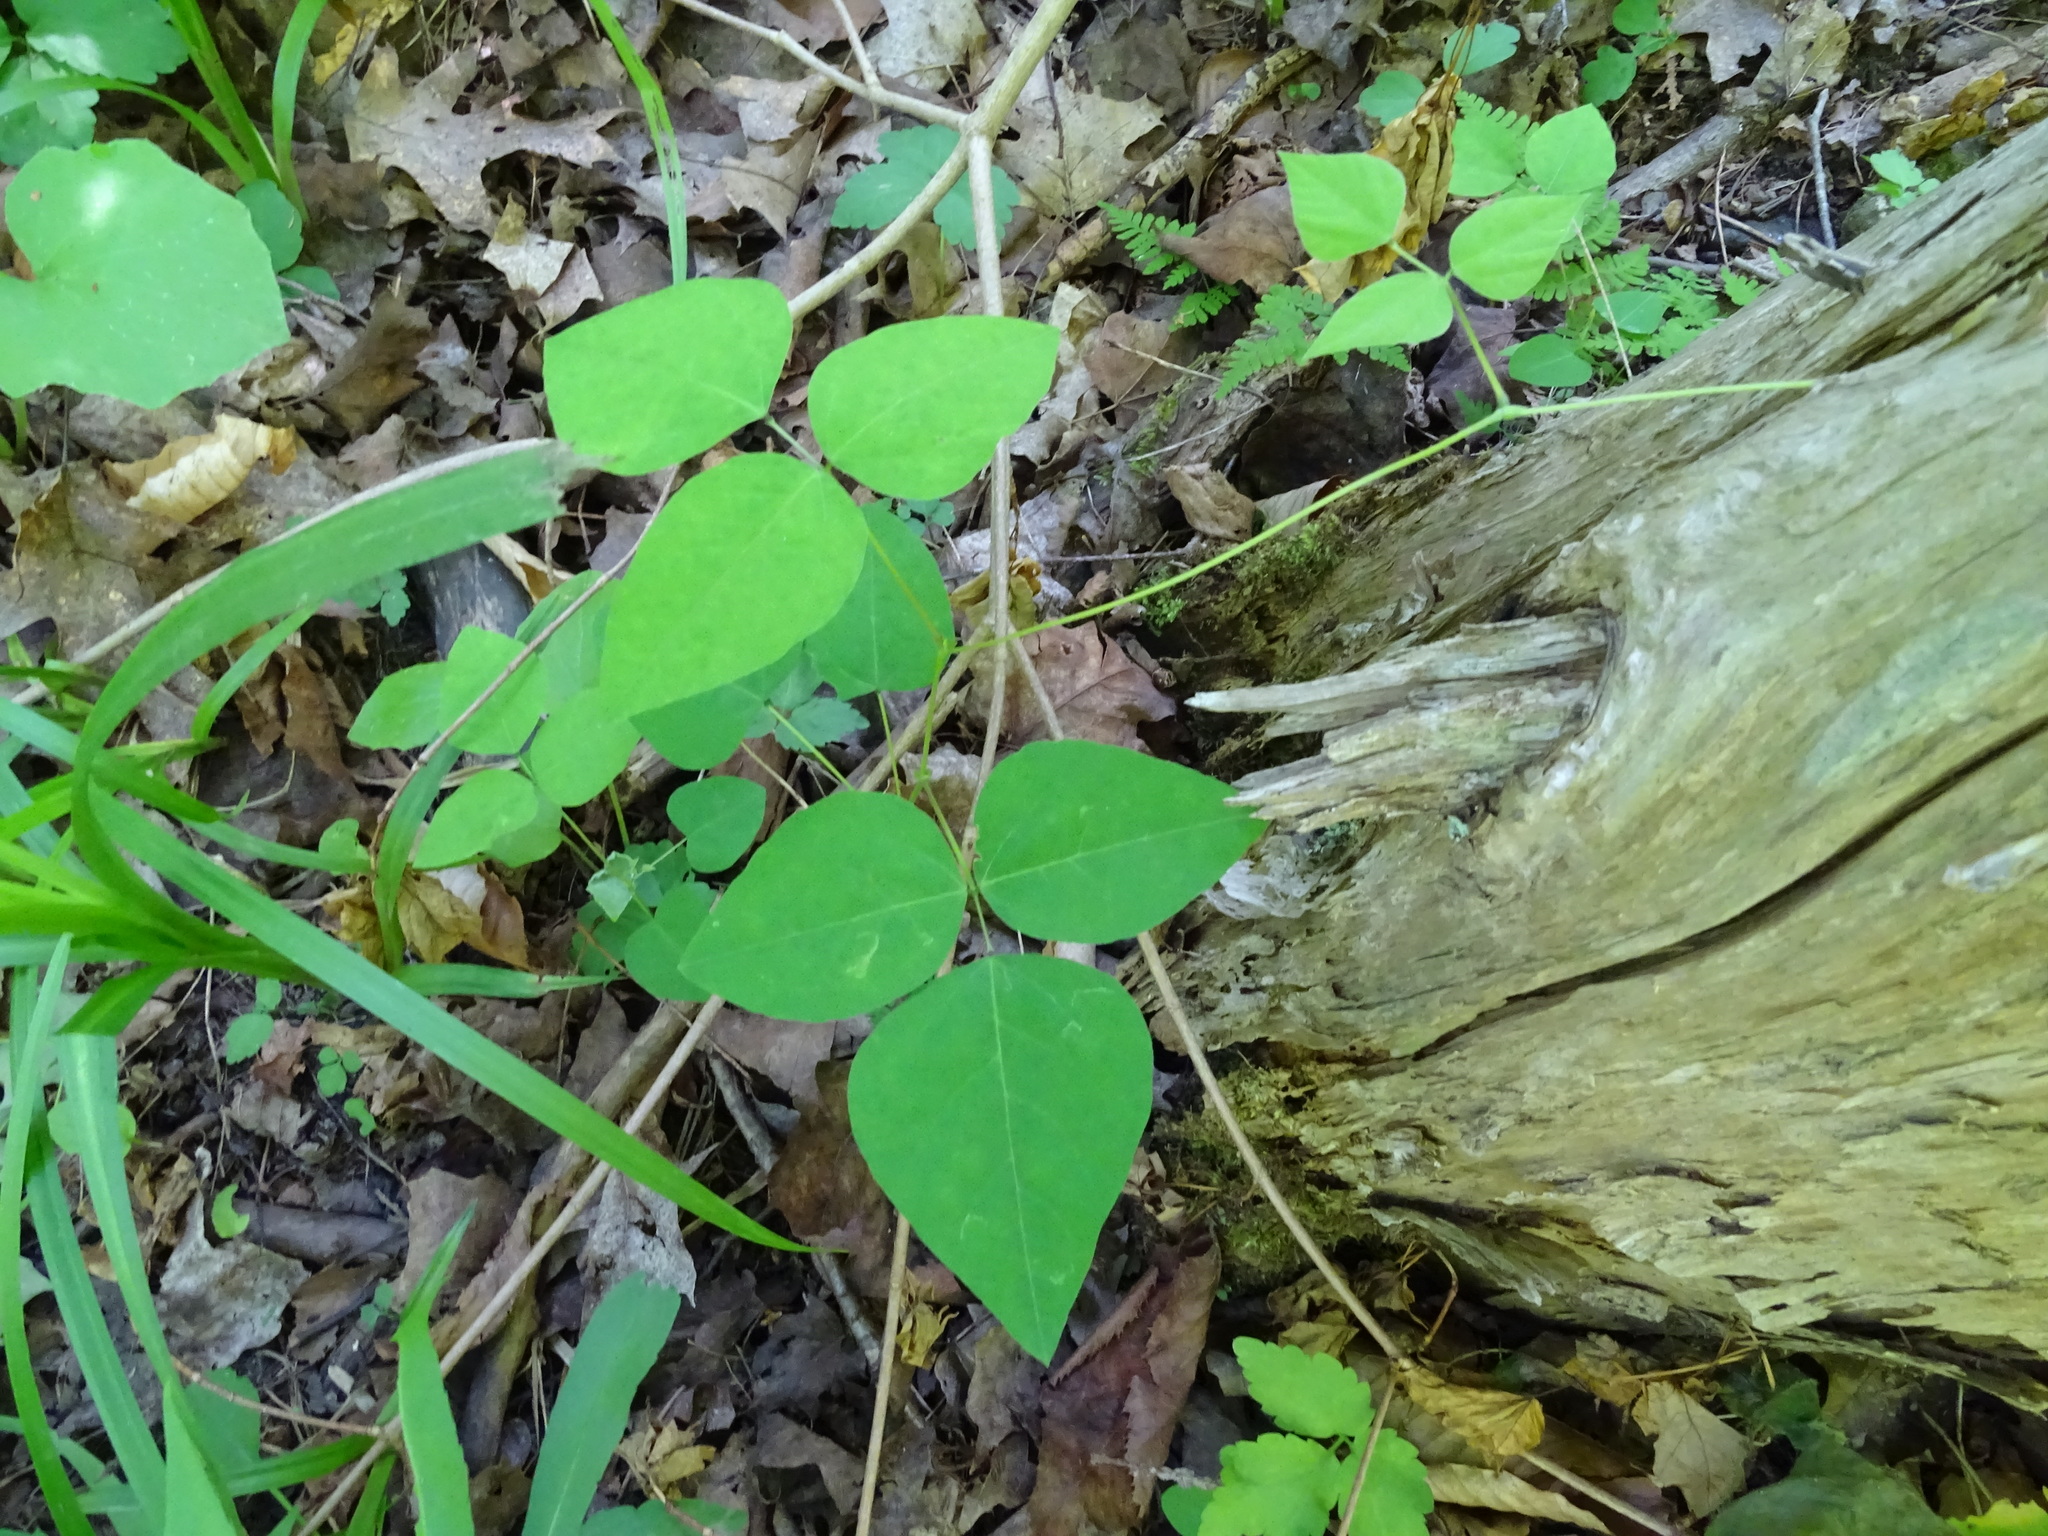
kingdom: Plantae
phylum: Tracheophyta
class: Magnoliopsida
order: Fabales
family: Fabaceae
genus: Amphicarpaea
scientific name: Amphicarpaea bracteata
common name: American hog peanut
